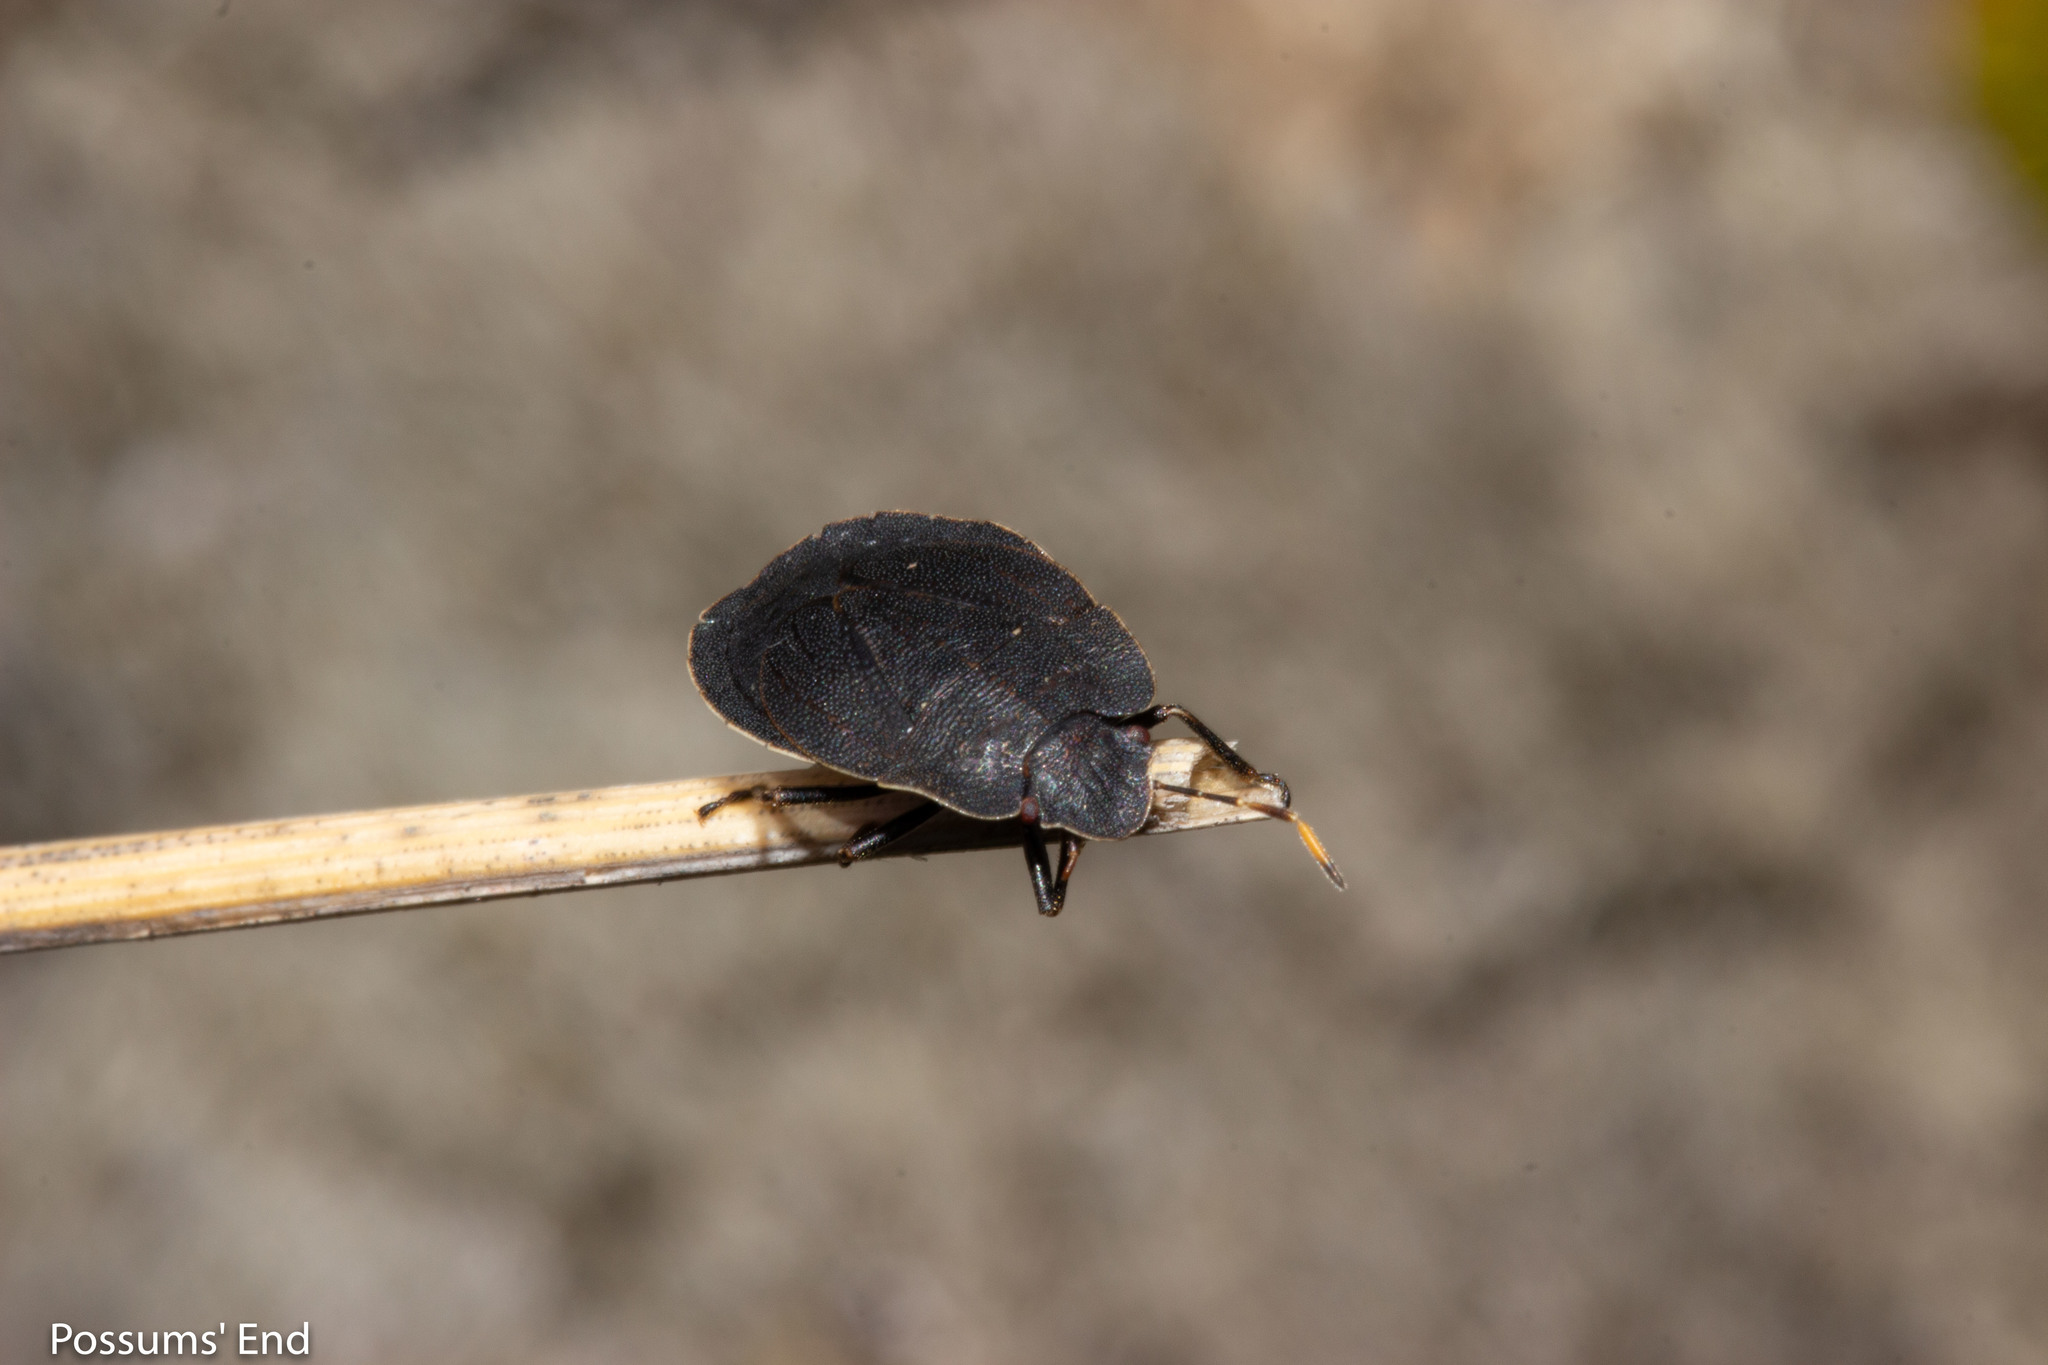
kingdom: Animalia
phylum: Arthropoda
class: Insecta
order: Hemiptera
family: Pentatomidae
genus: Hypsithocus
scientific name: Hypsithocus hudsonae
